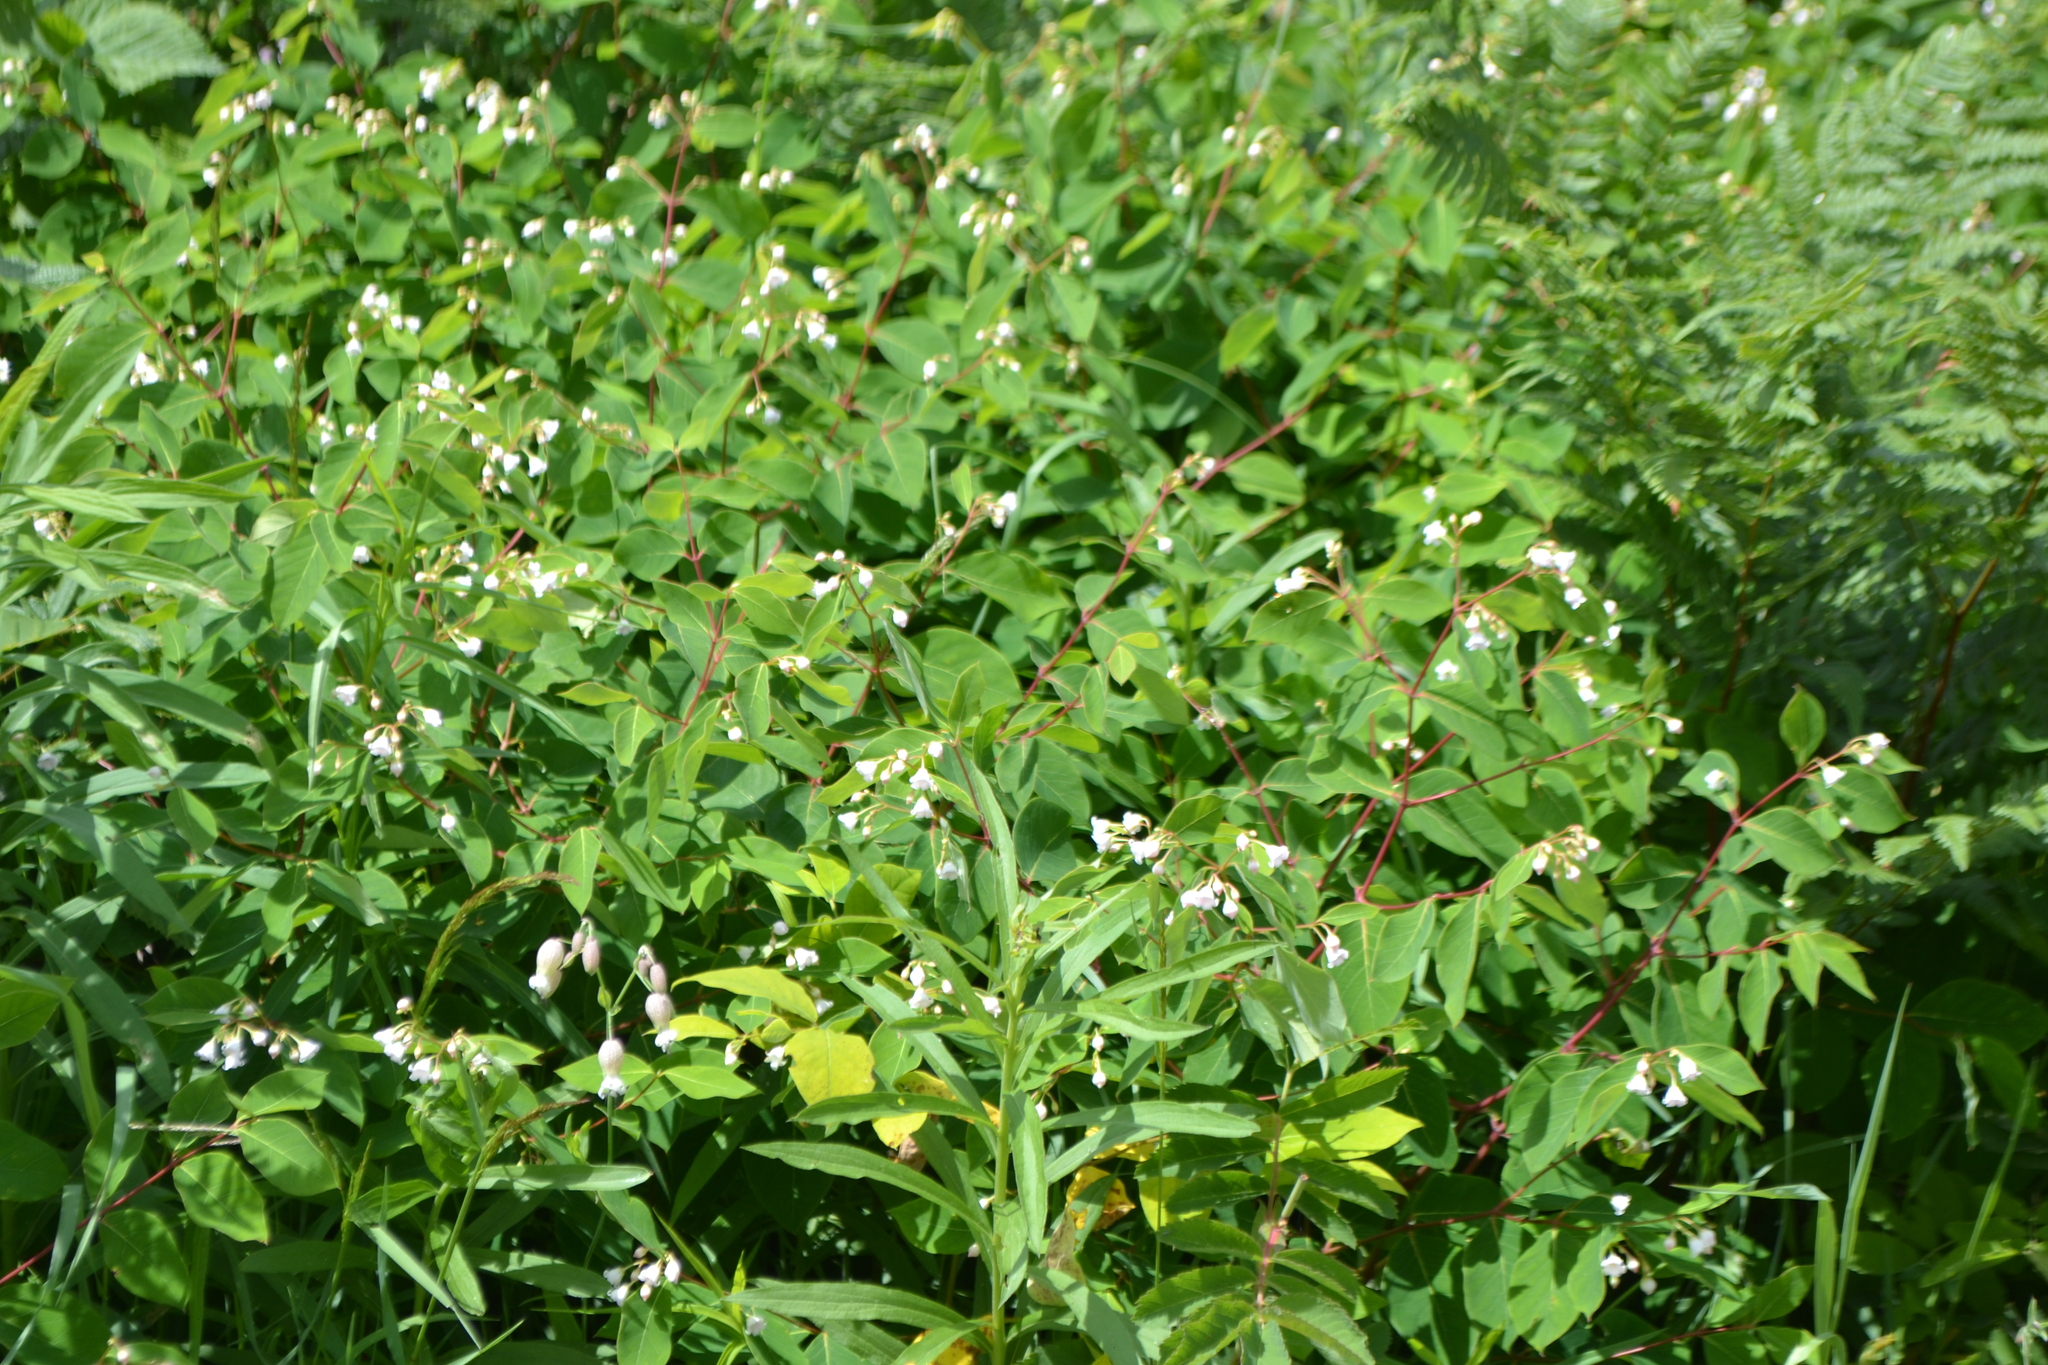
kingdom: Plantae
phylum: Tracheophyta
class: Magnoliopsida
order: Gentianales
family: Apocynaceae
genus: Apocynum
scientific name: Apocynum androsaemifolium
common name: Spreading dogbane
